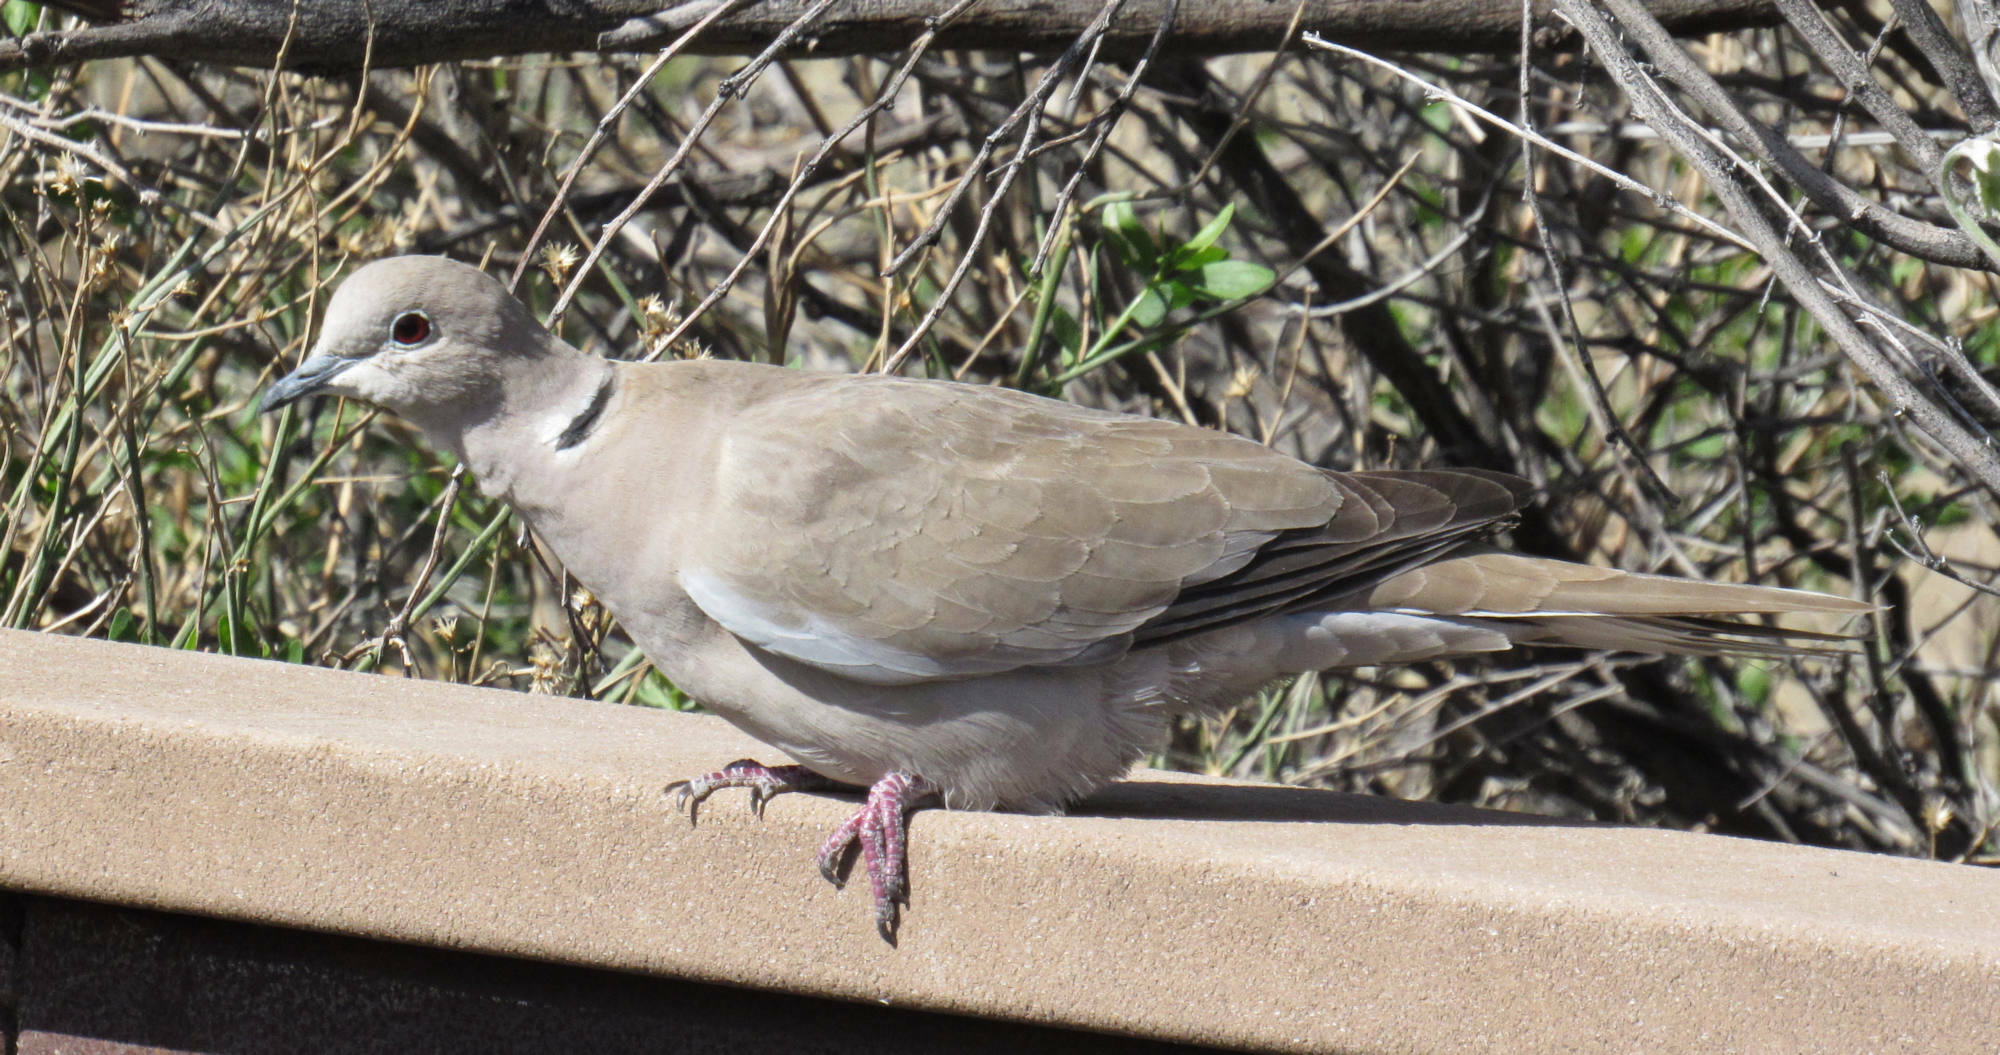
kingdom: Animalia
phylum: Chordata
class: Aves
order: Columbiformes
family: Columbidae
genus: Streptopelia
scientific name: Streptopelia decaocto
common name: Eurasian collared dove
